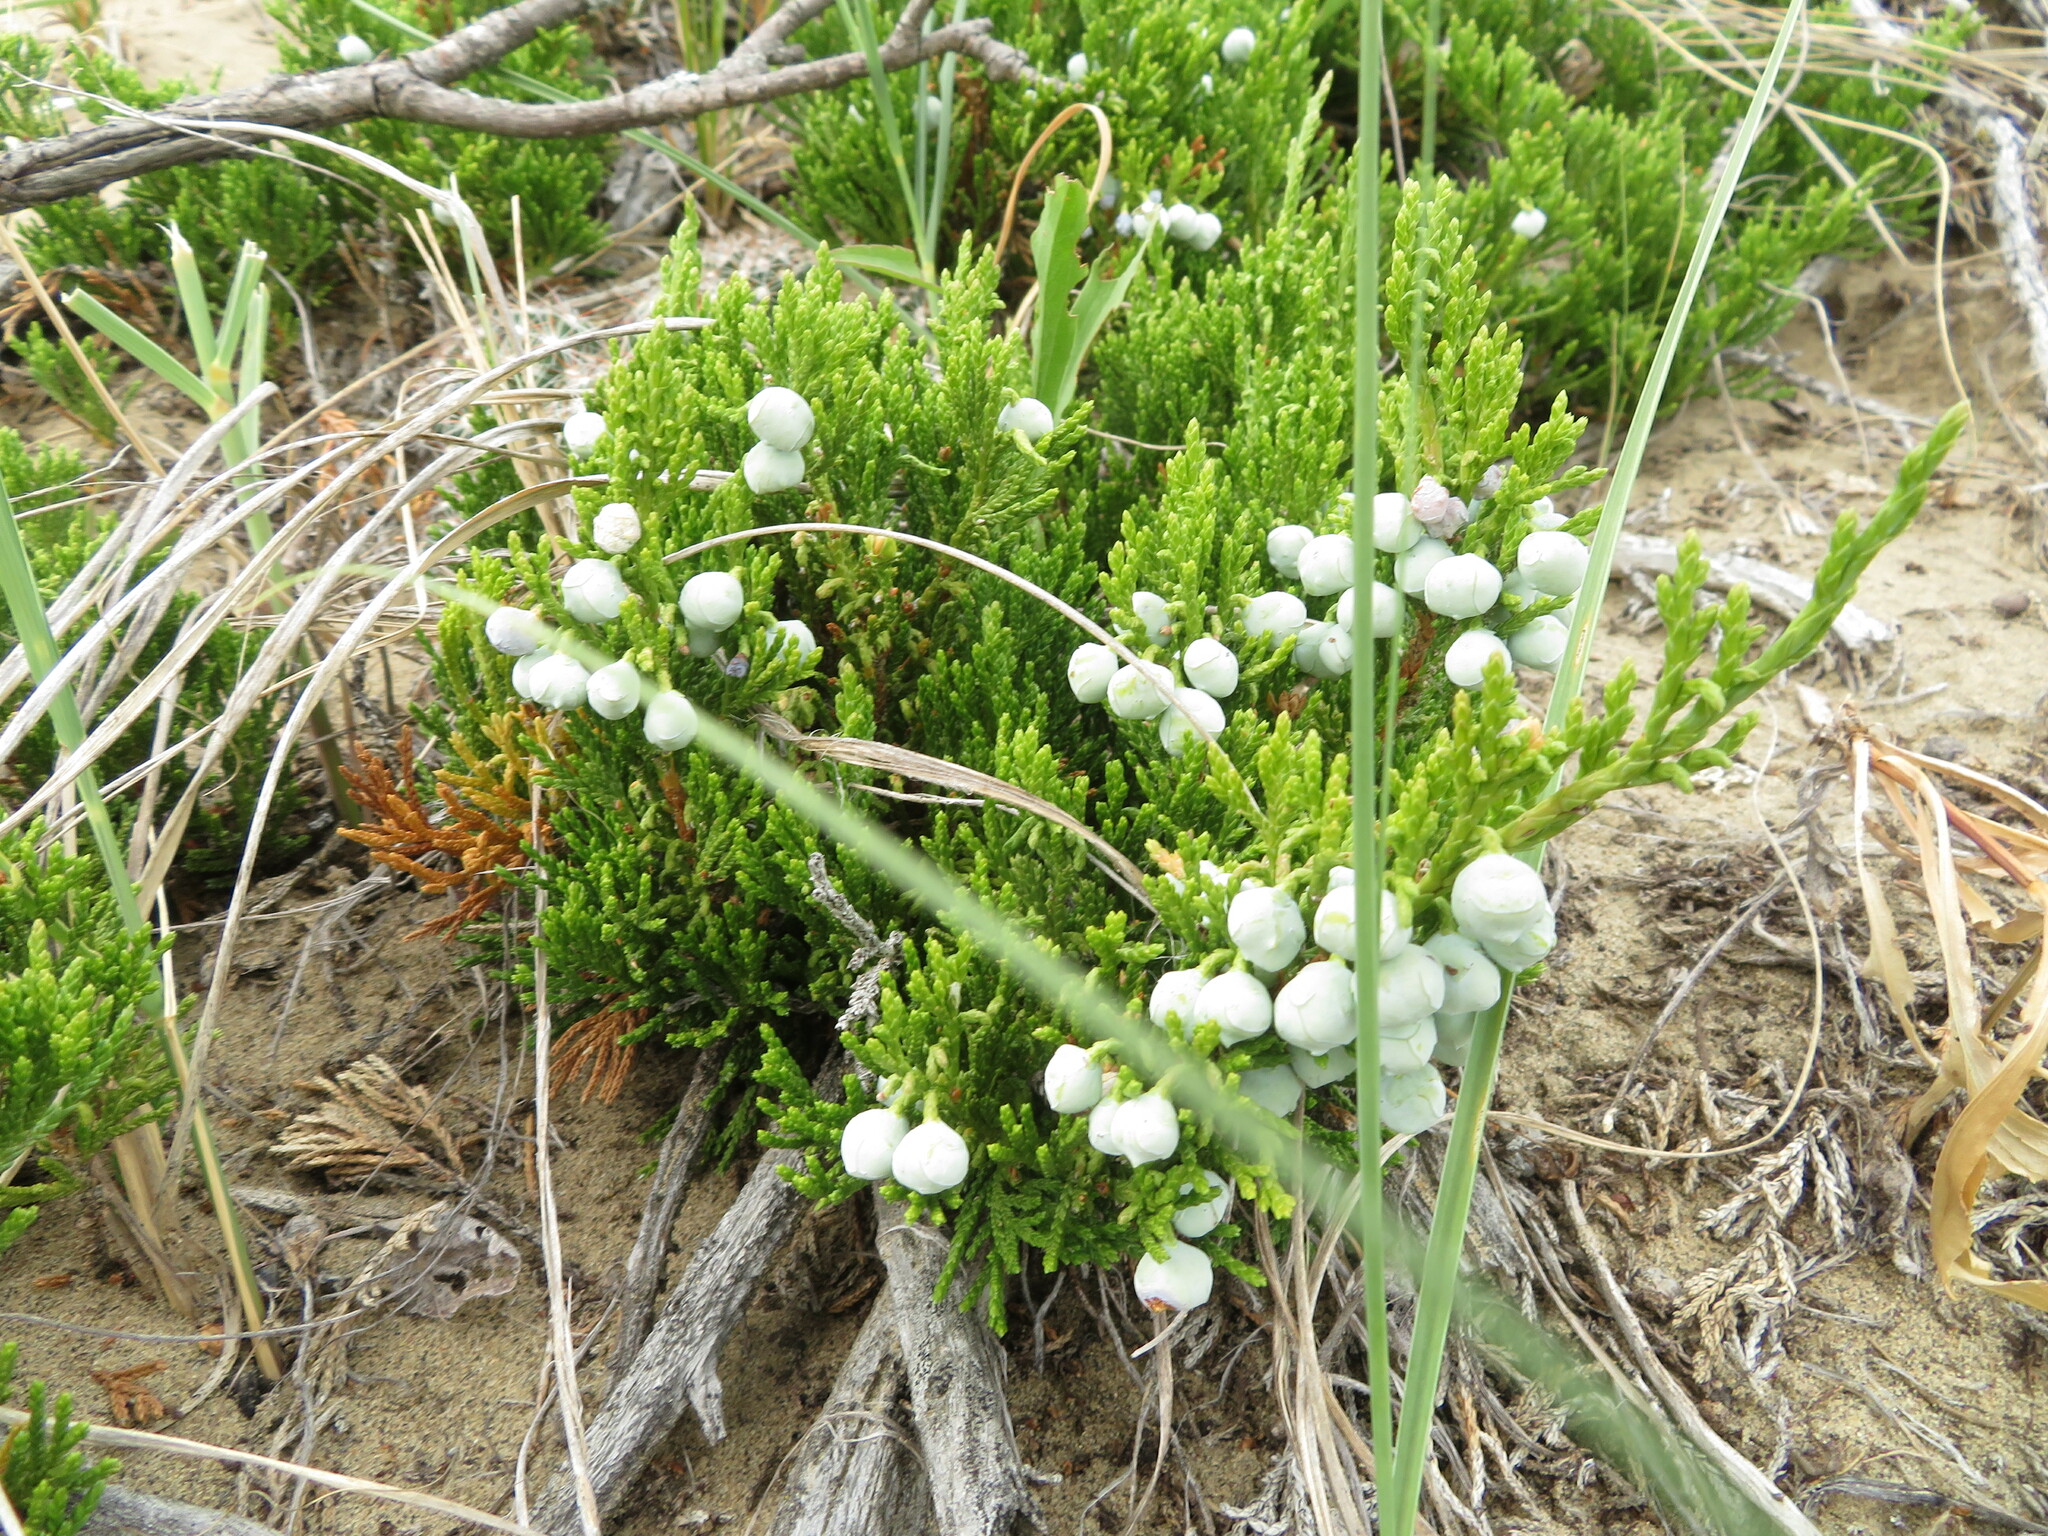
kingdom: Plantae
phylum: Tracheophyta
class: Pinopsida
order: Pinales
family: Cupressaceae
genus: Juniperus
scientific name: Juniperus horizontalis
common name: Creeping juniper
